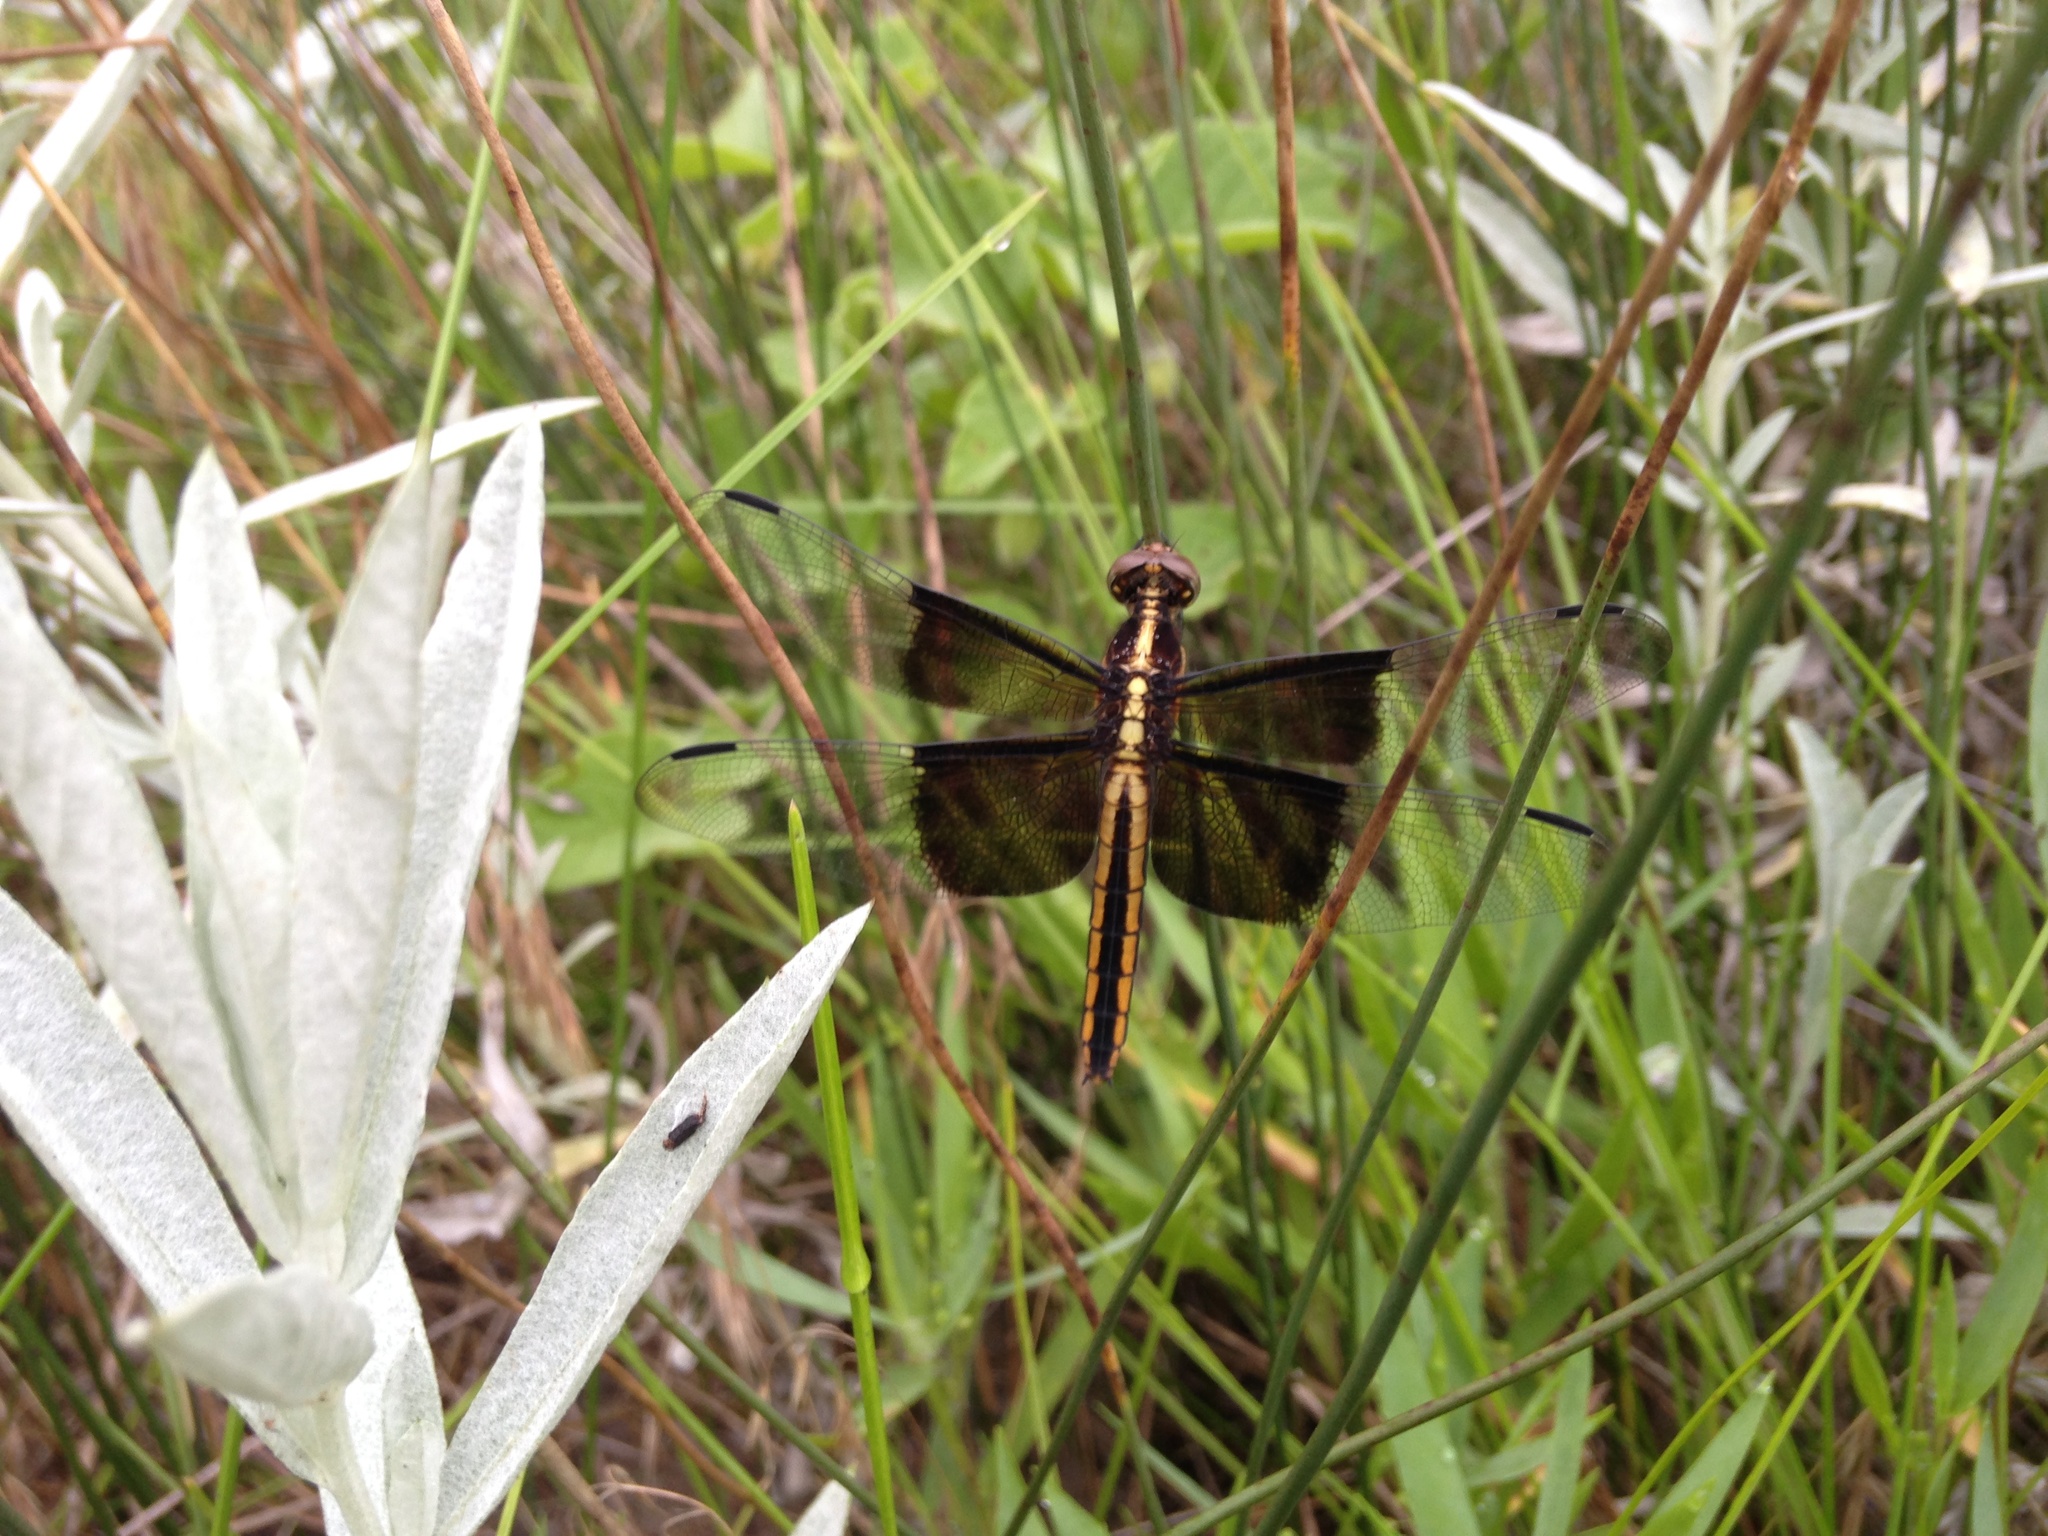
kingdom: Animalia
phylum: Arthropoda
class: Insecta
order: Odonata
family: Libellulidae
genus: Libellula
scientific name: Libellula luctuosa
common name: Widow skimmer
